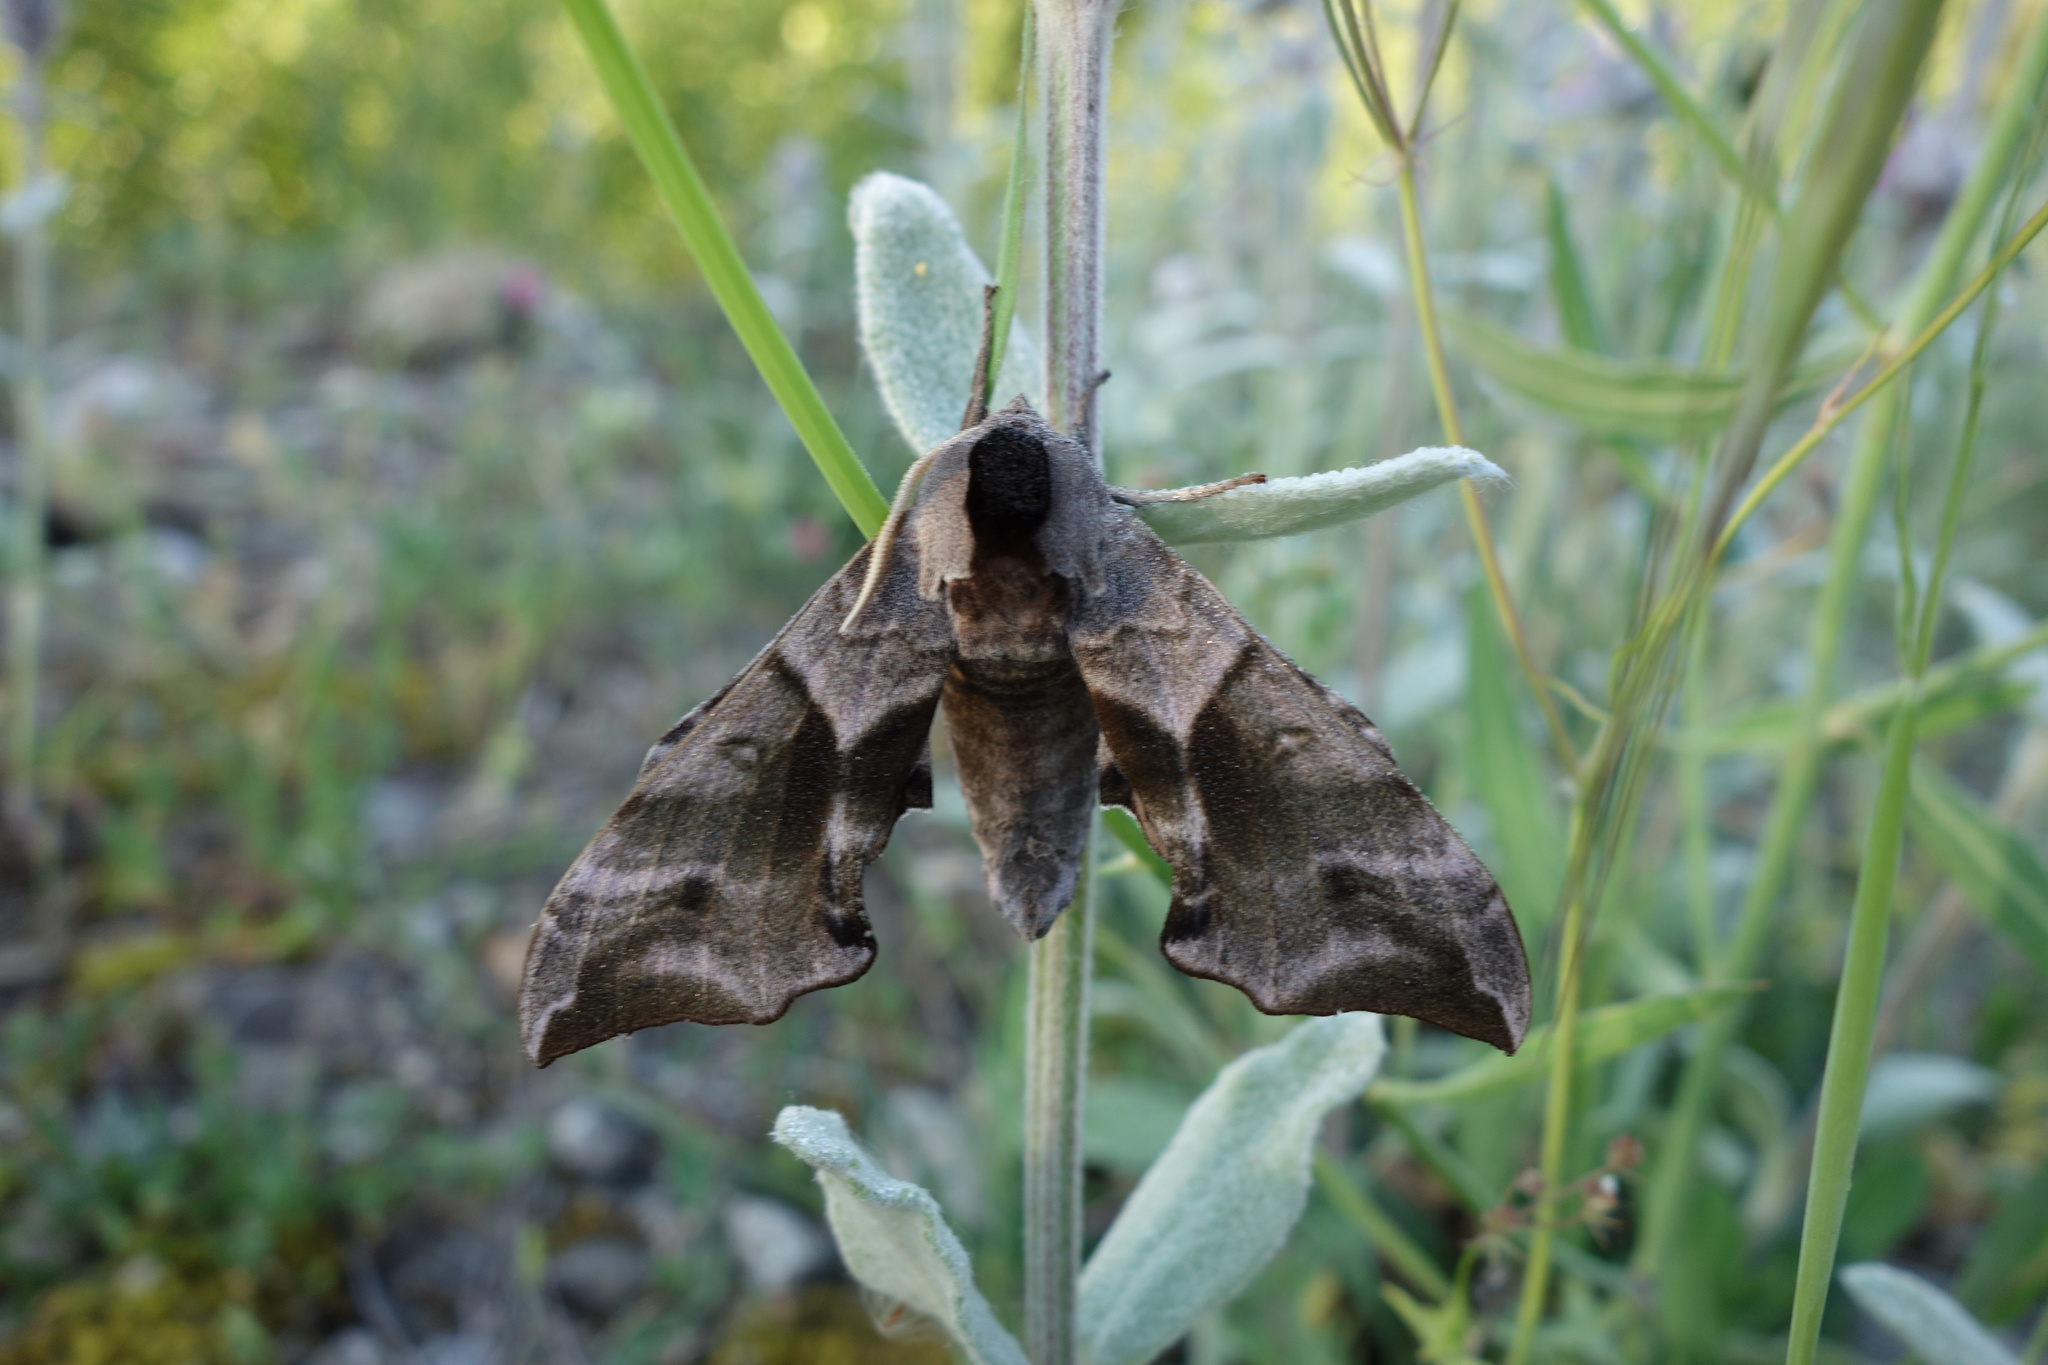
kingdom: Animalia
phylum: Arthropoda
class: Insecta
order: Lepidoptera
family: Sphingidae
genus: Smerinthus
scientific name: Smerinthus ocellata
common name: Eyed hawk-moth
